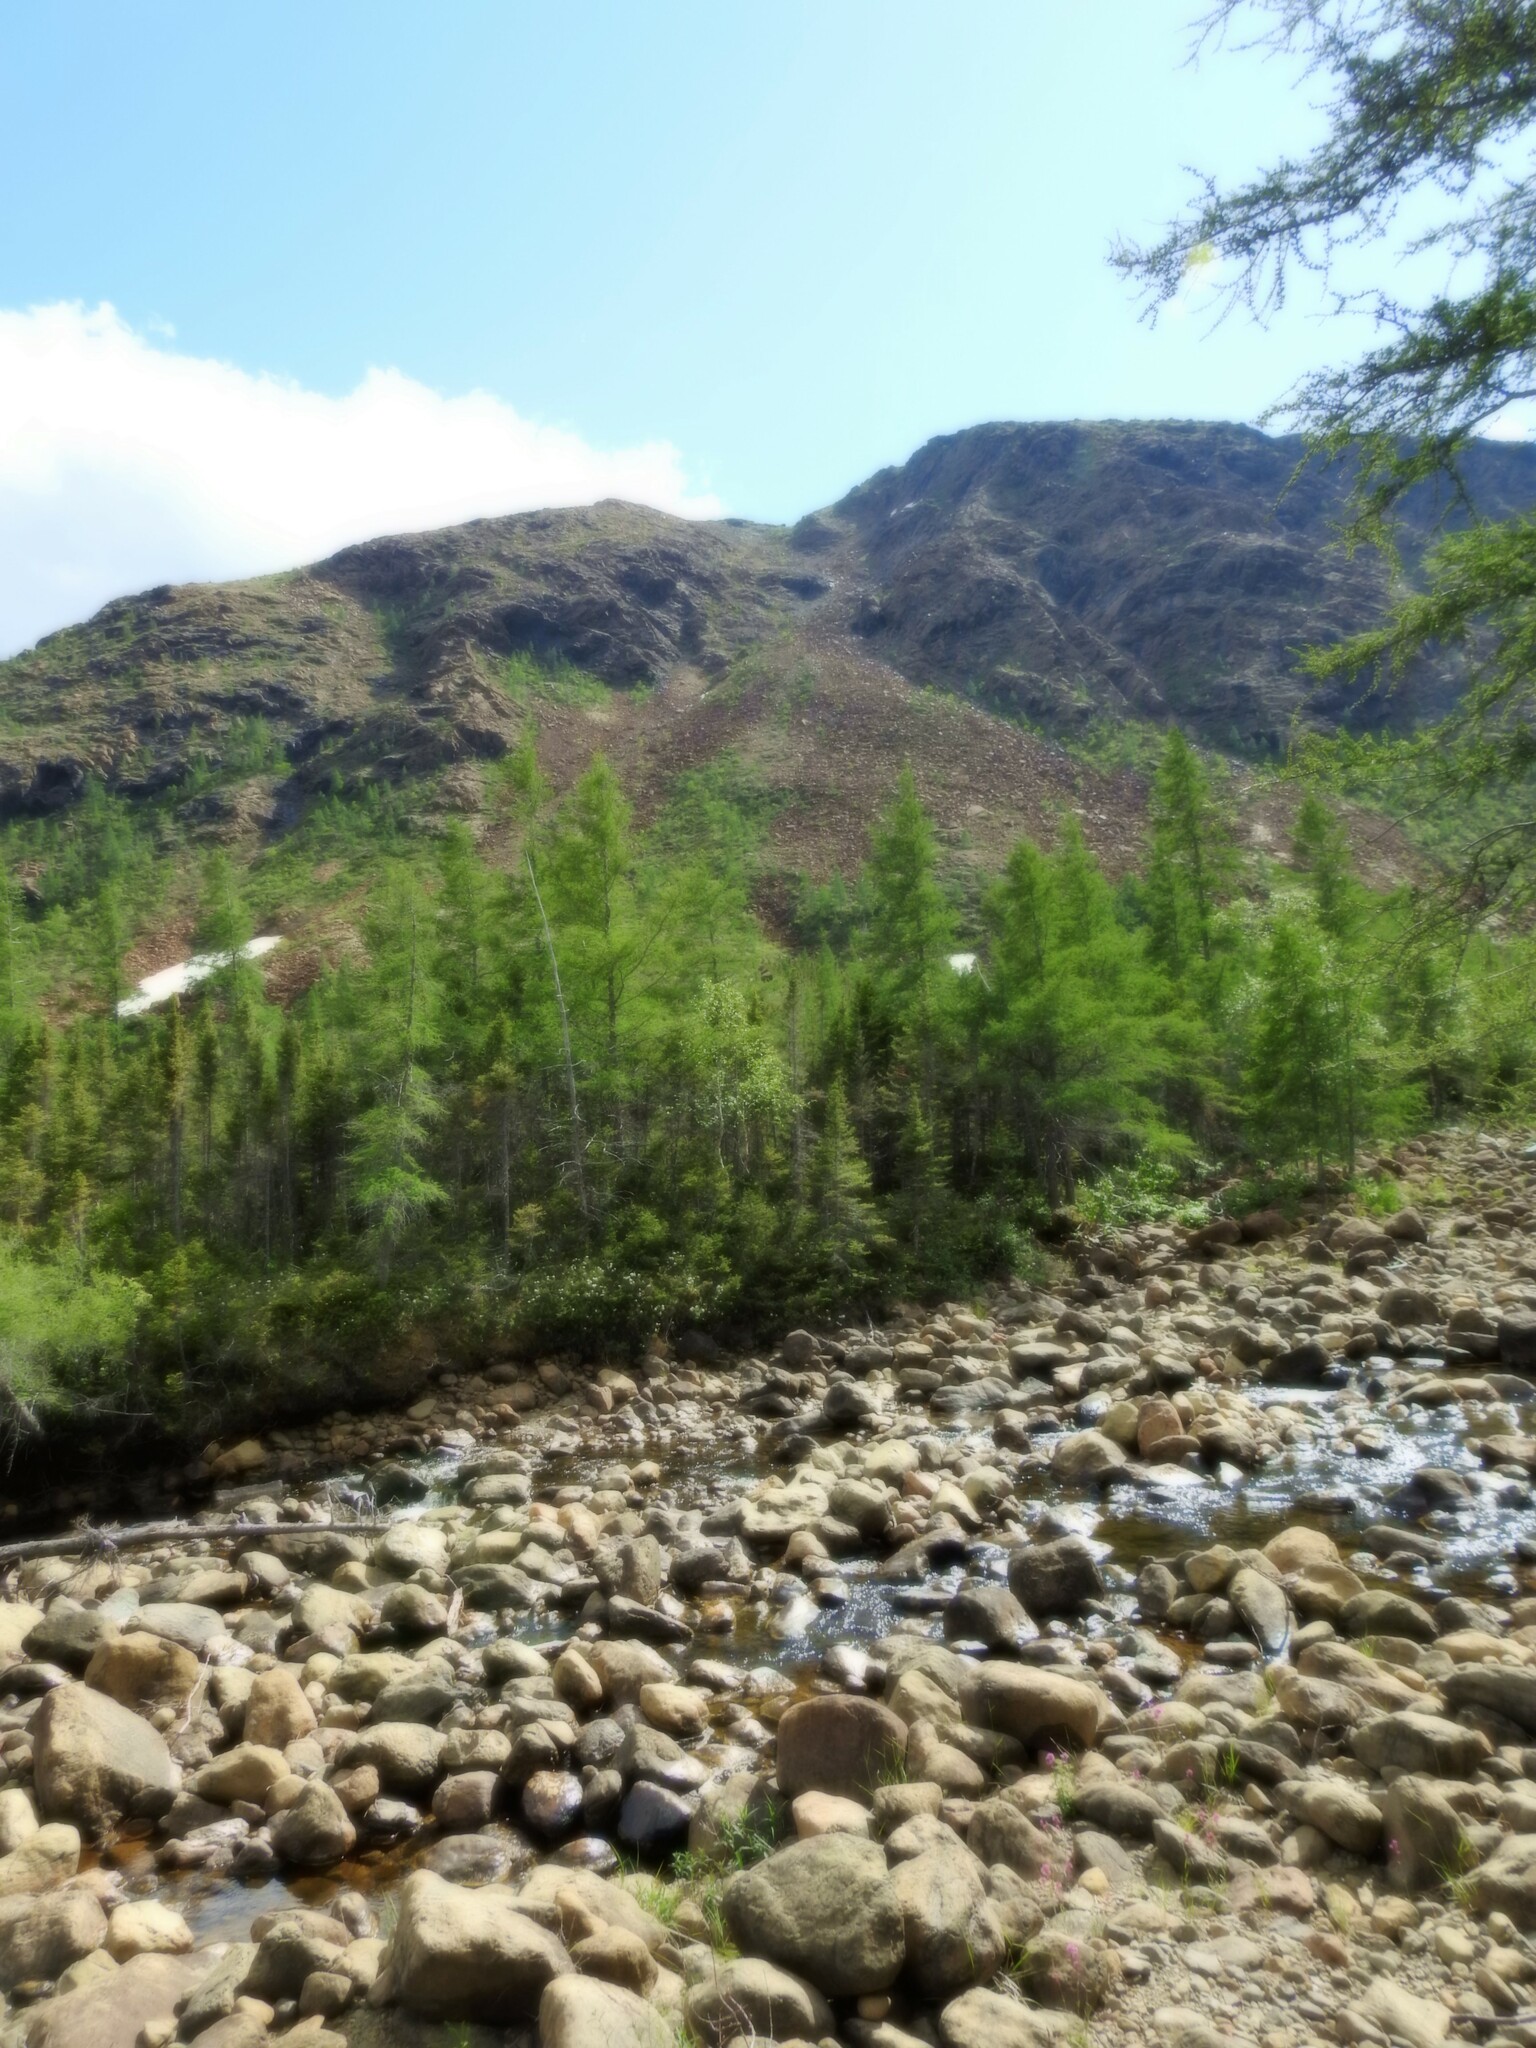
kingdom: Plantae
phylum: Tracheophyta
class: Pinopsida
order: Pinales
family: Pinaceae
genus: Larix
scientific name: Larix laricina
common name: American larch
